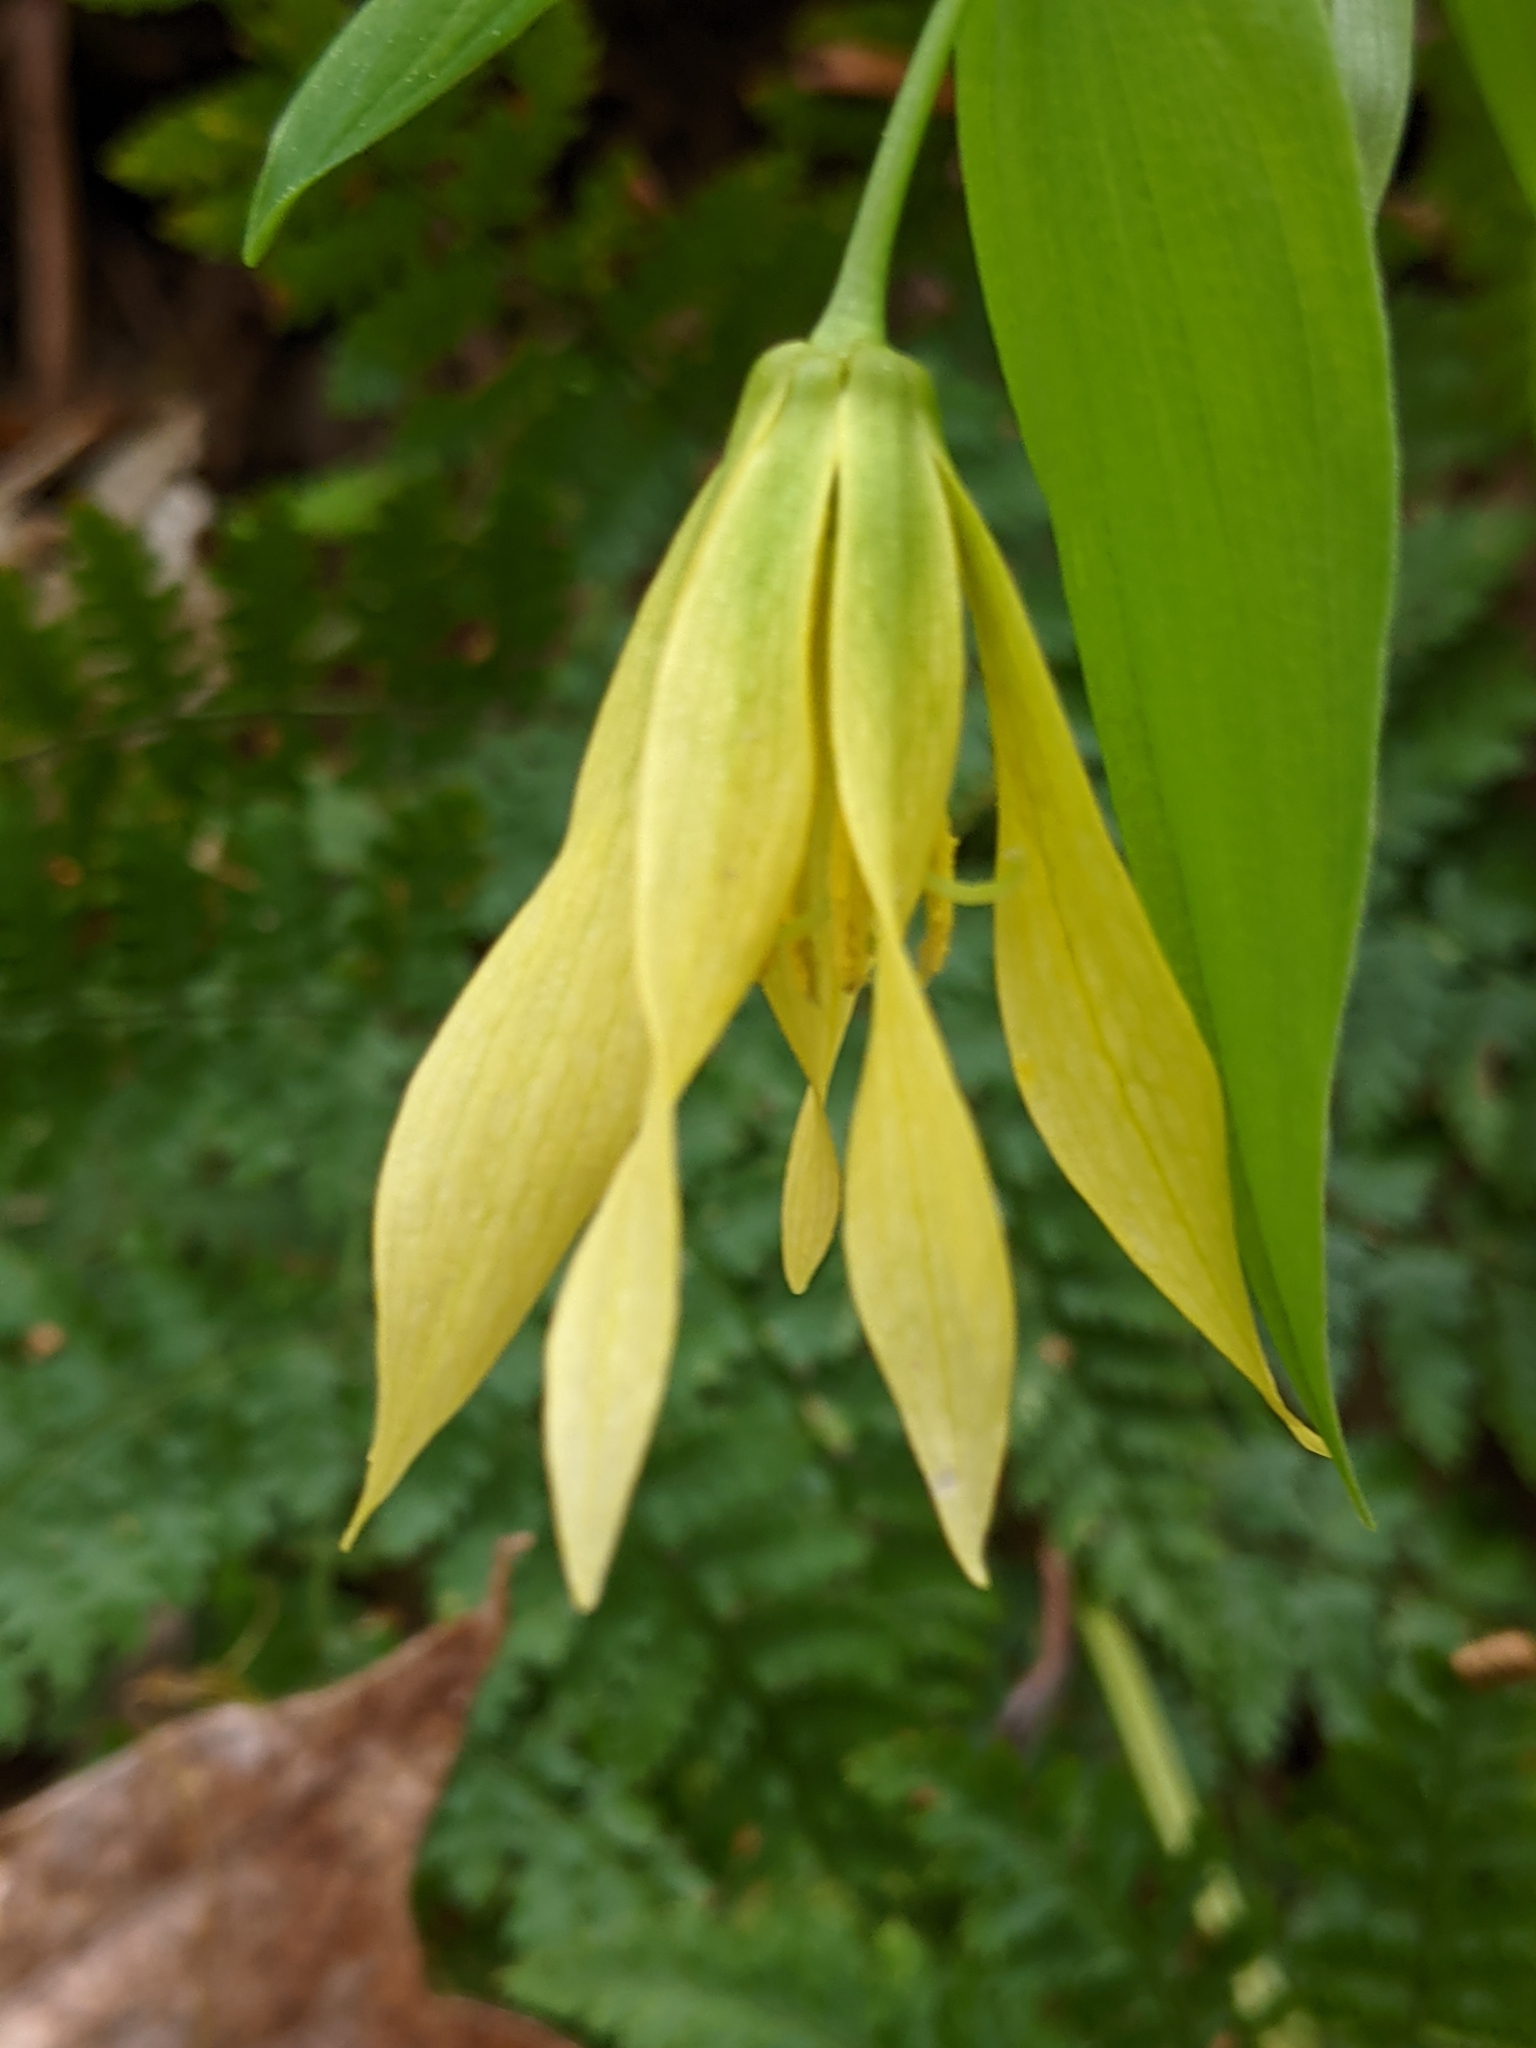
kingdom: Plantae
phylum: Tracheophyta
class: Liliopsida
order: Liliales
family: Colchicaceae
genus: Uvularia
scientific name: Uvularia grandiflora
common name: Bellwort
